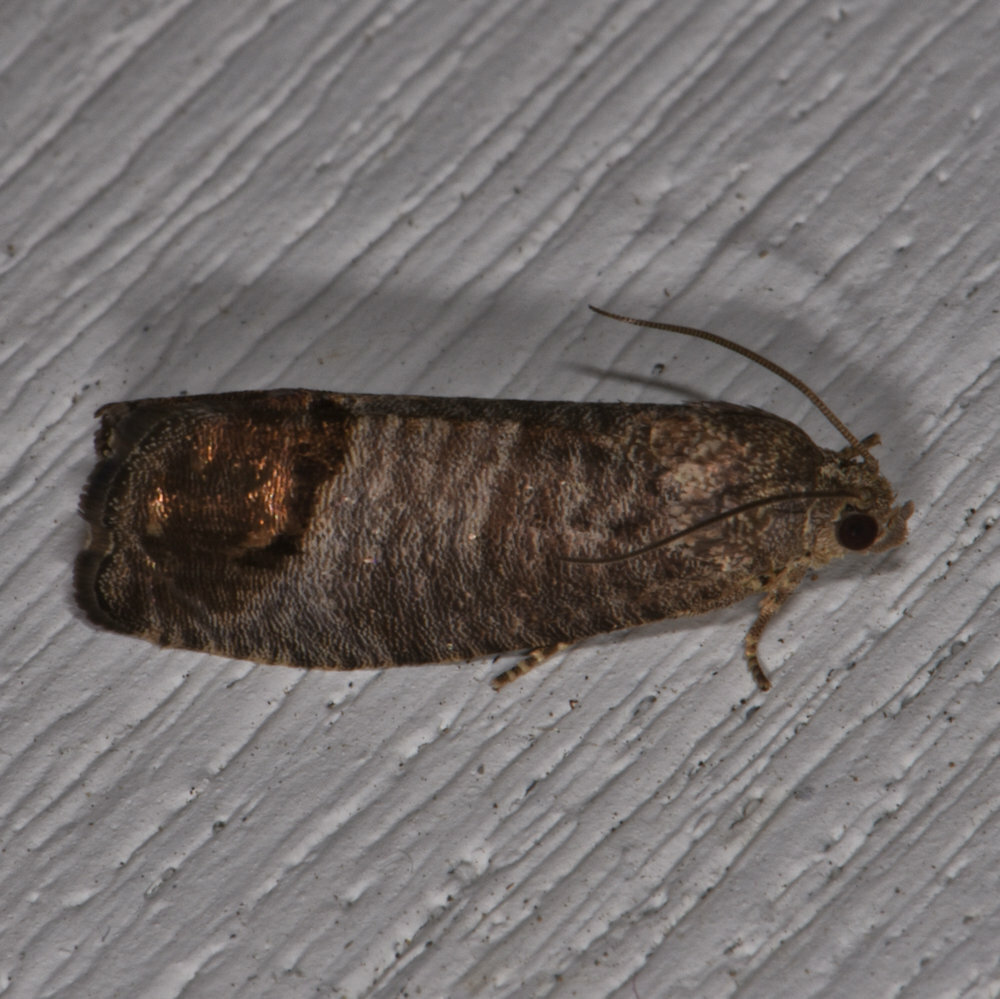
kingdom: Animalia
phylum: Arthropoda
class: Insecta
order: Lepidoptera
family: Tortricidae
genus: Cydia
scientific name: Cydia pomonella
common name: Codling moth
